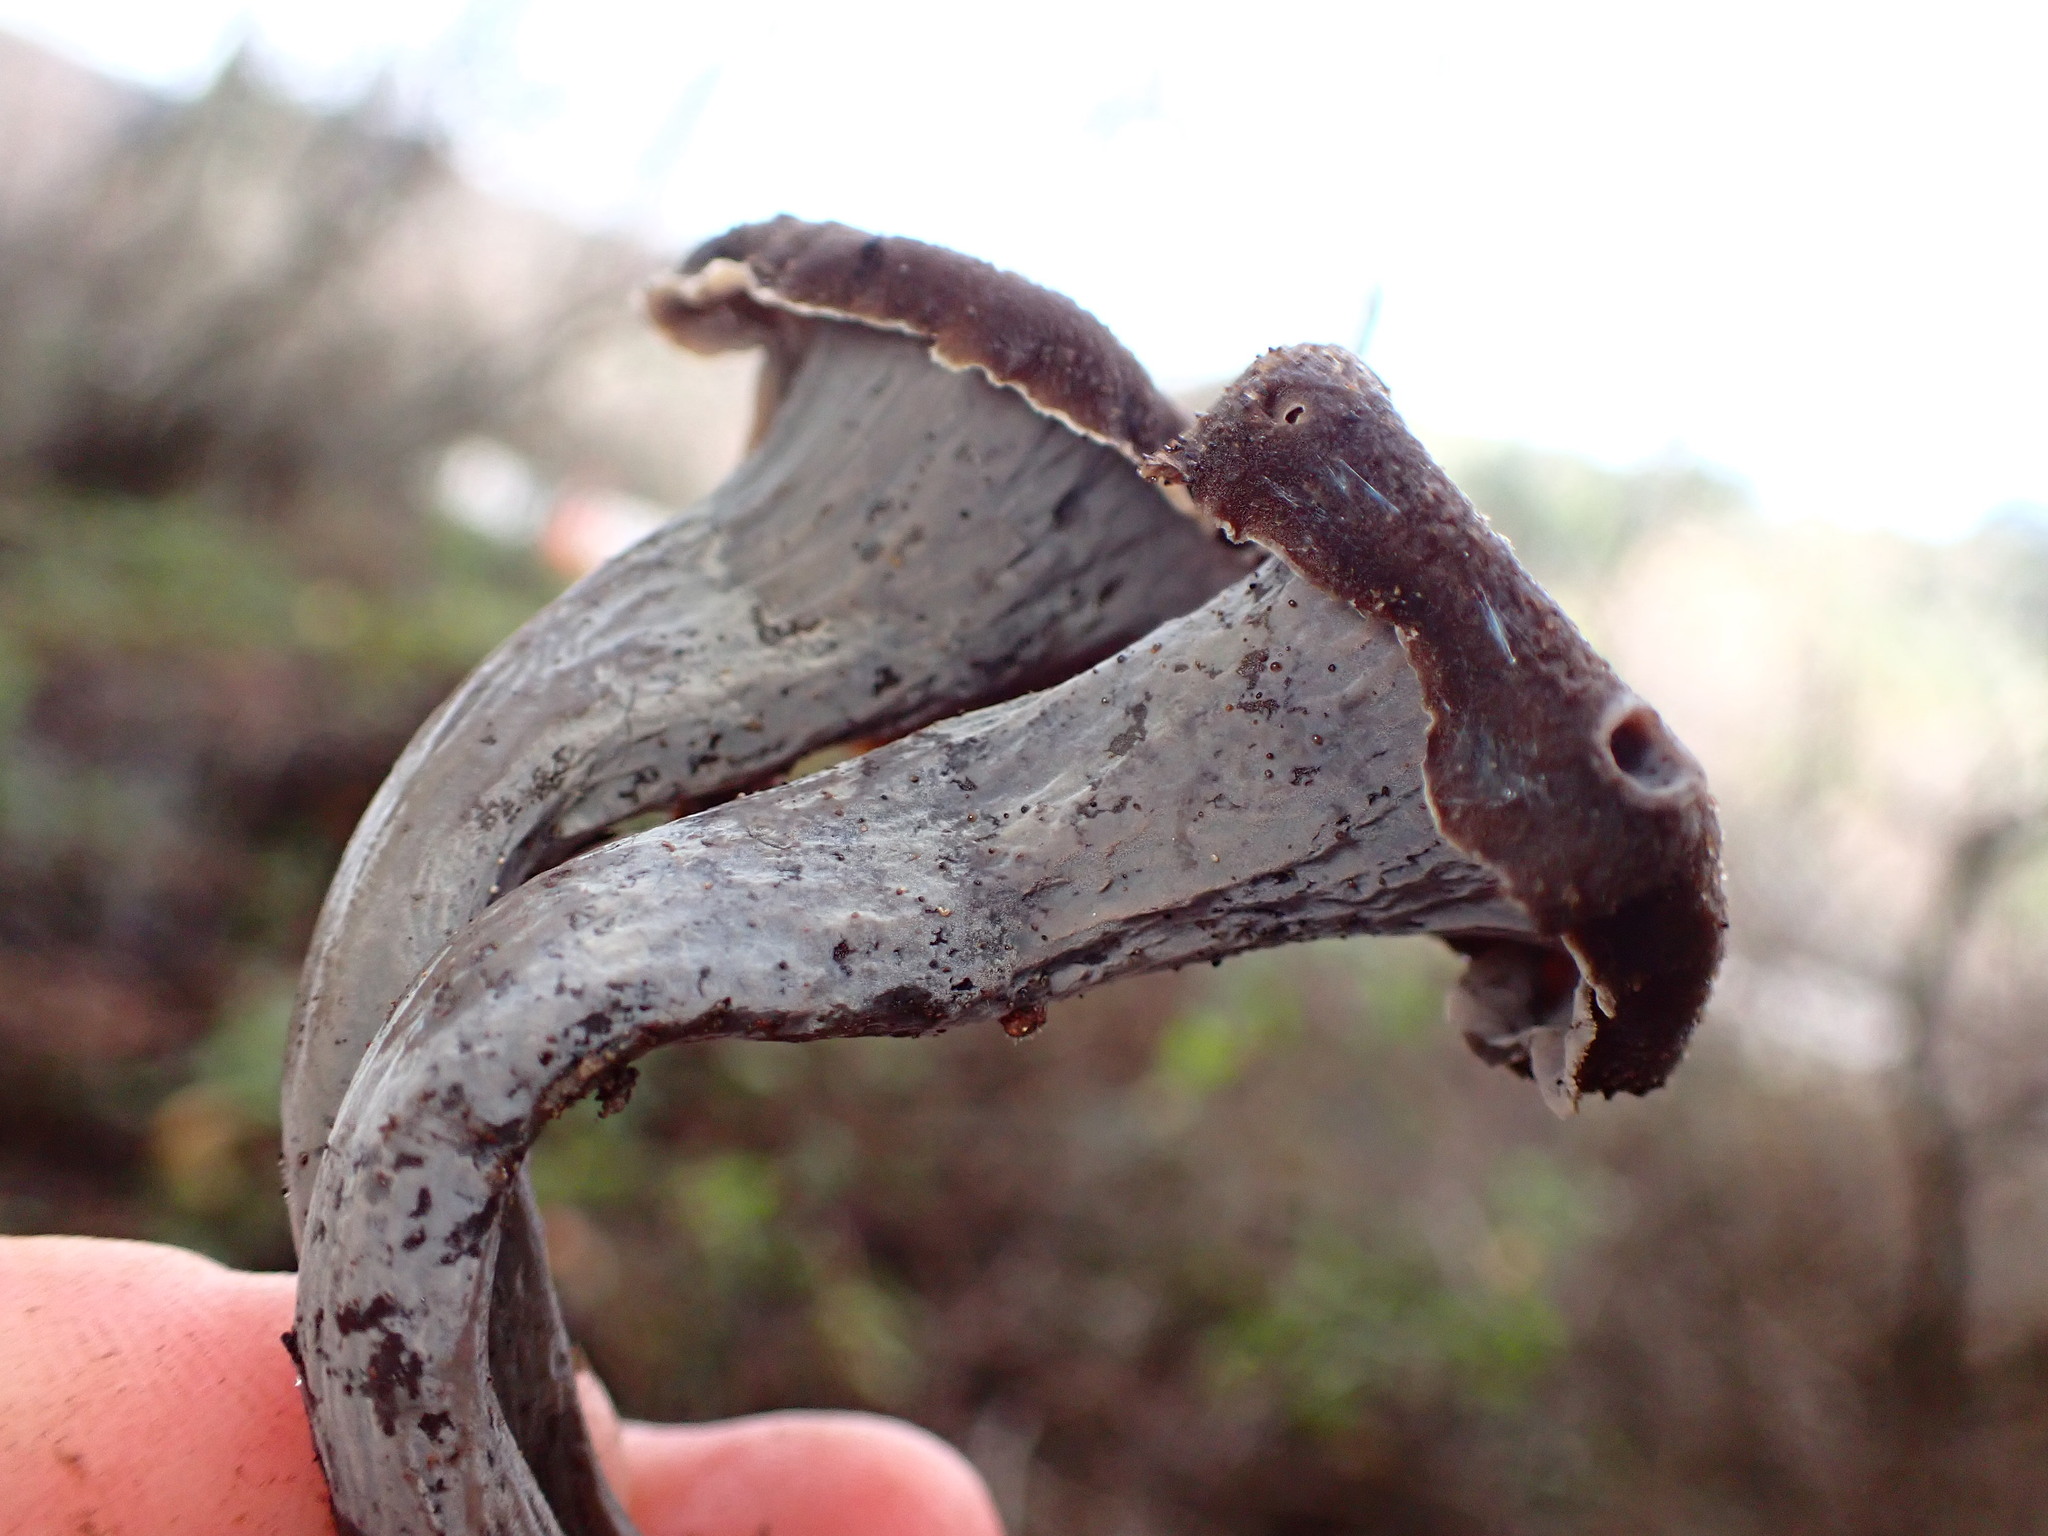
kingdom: Fungi
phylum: Basidiomycota
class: Agaricomycetes
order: Cantharellales
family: Hydnaceae
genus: Craterellus
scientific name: Craterellus calicornucopioides
